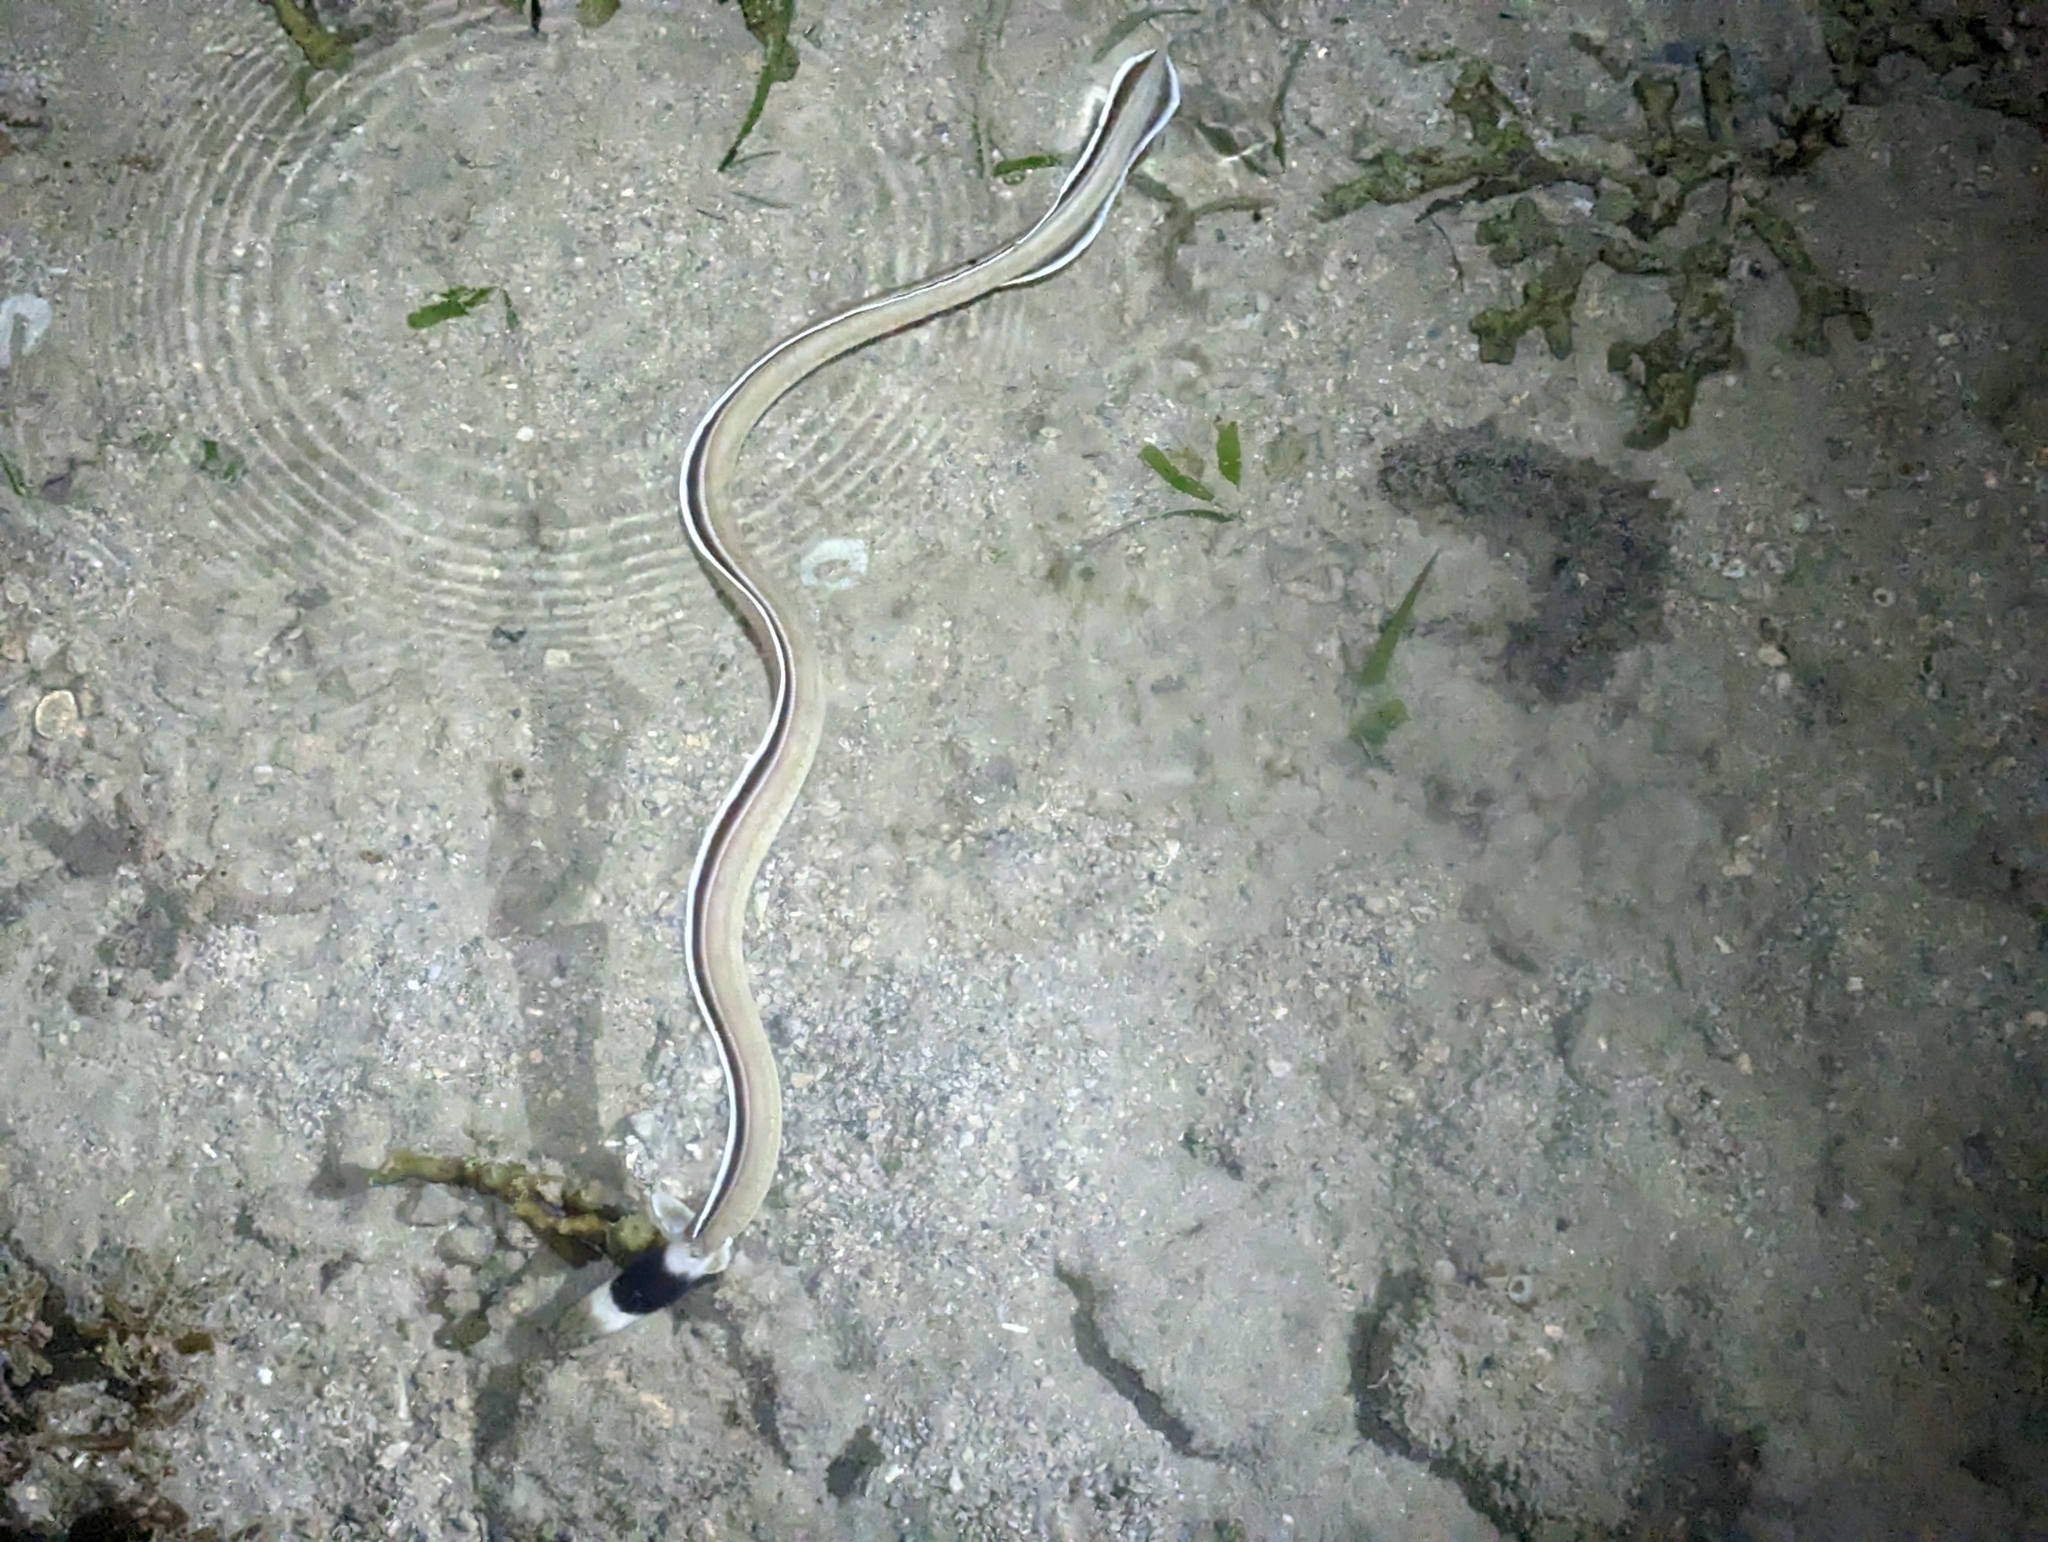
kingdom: Animalia
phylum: Chordata
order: Anguilliformes
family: Ophichthidae
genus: Ophichthus
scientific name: Ophichthus cephalozona
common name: Dark-shouldered snake eel
